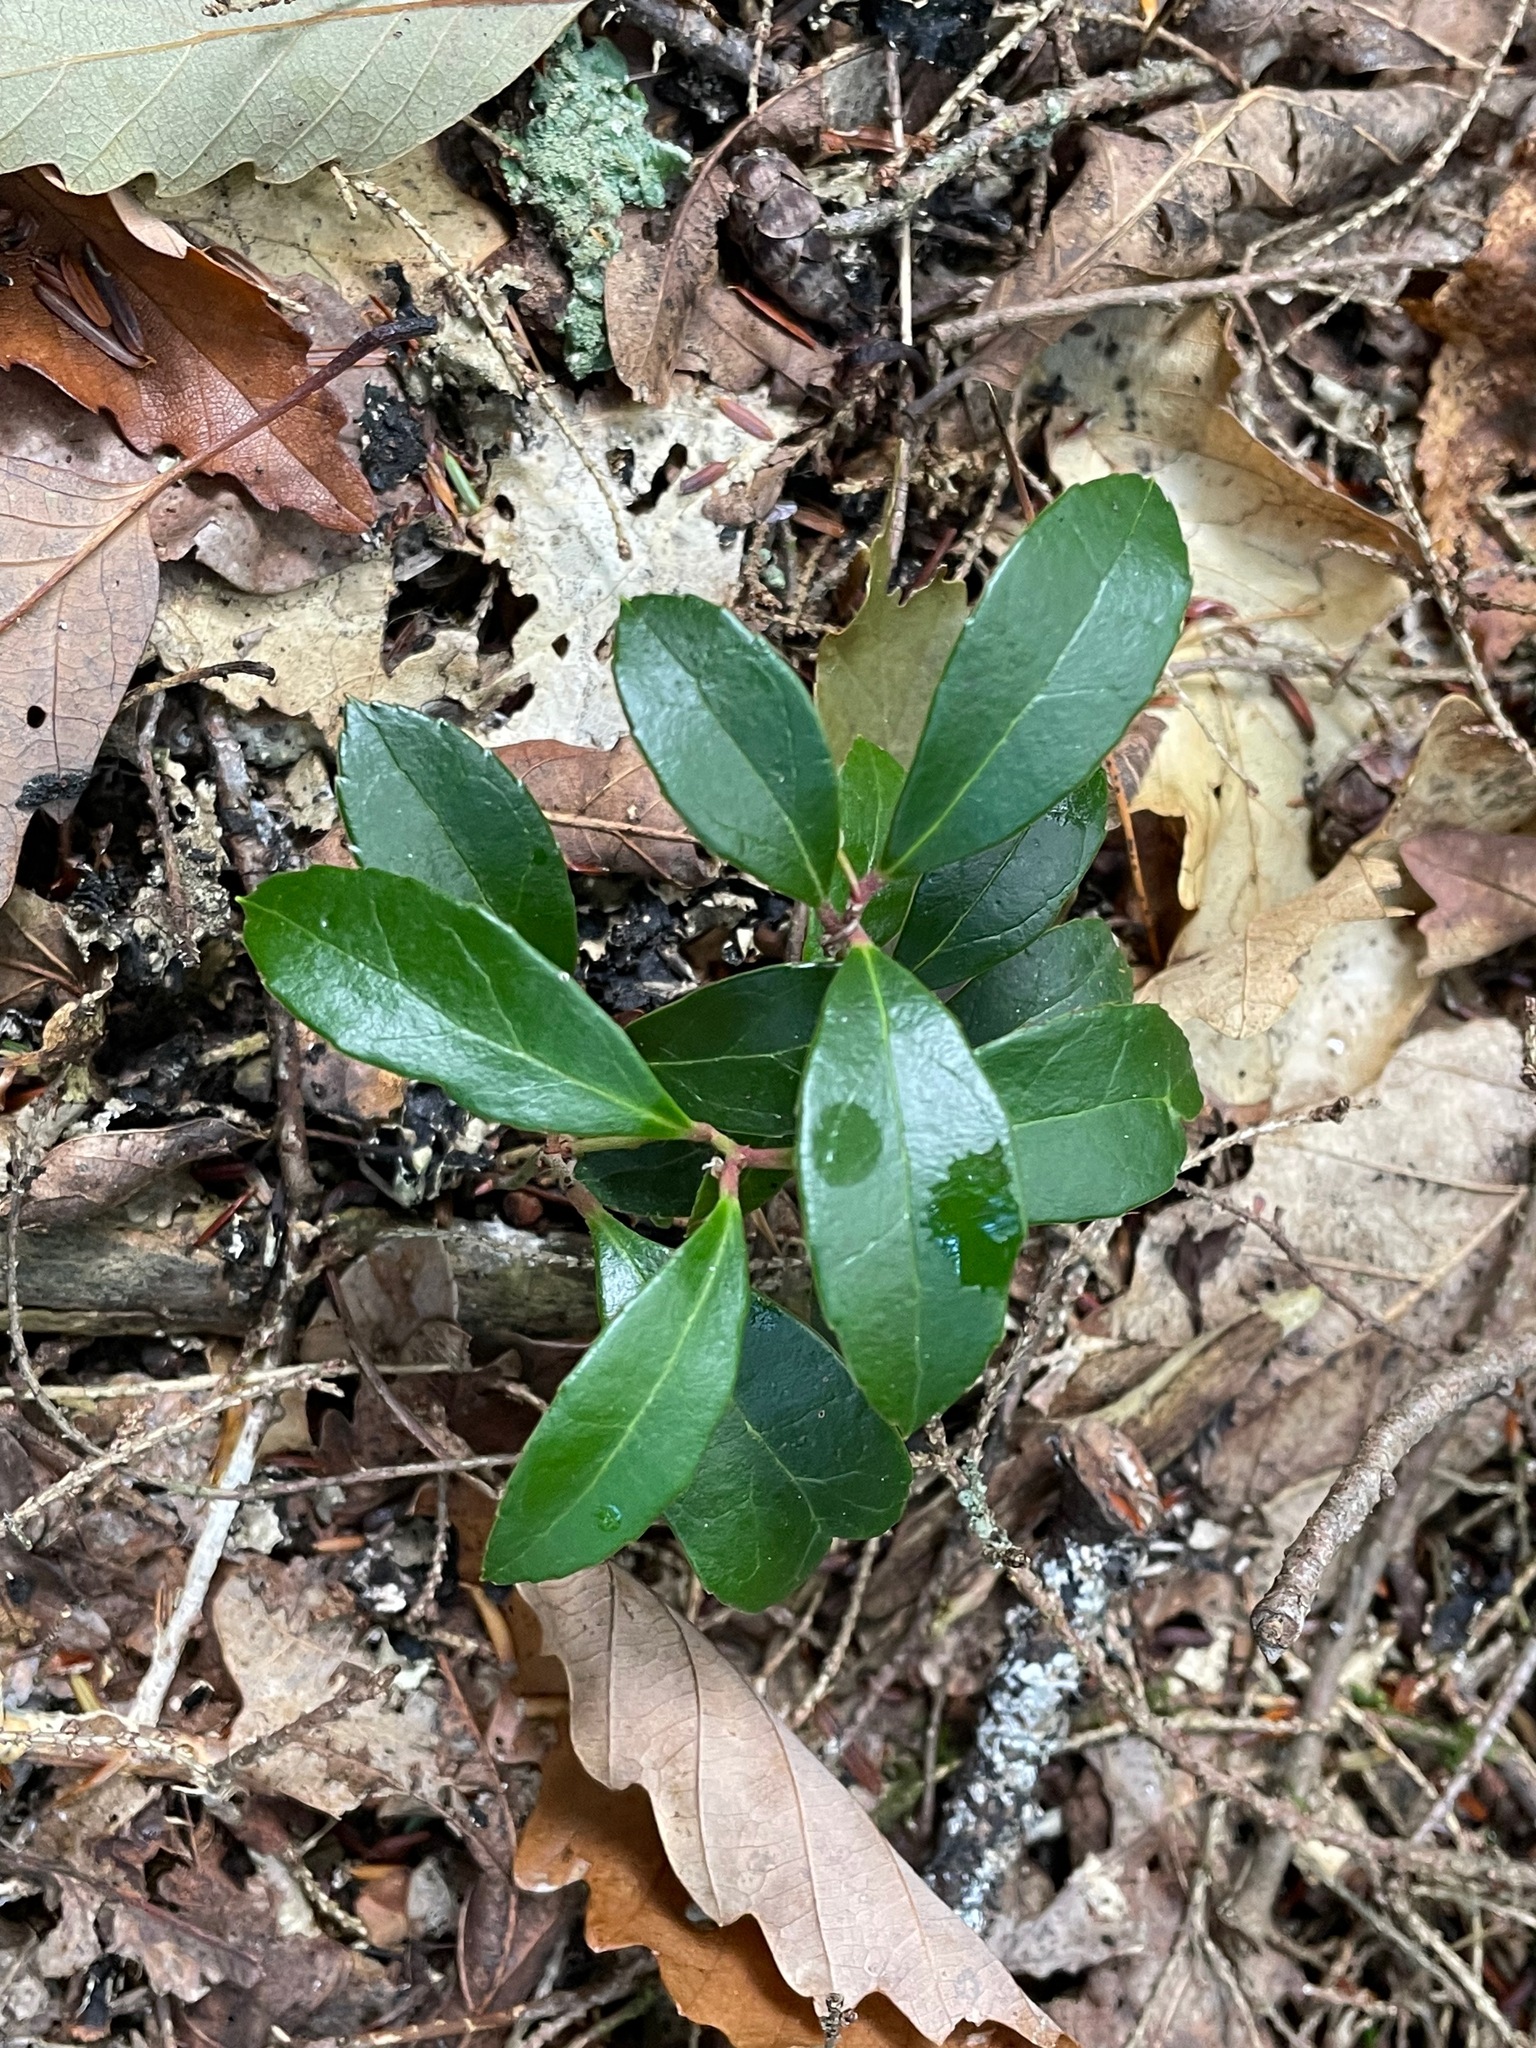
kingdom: Plantae
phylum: Tracheophyta
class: Magnoliopsida
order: Ericales
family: Ericaceae
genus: Gaultheria
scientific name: Gaultheria procumbens
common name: Checkerberry
